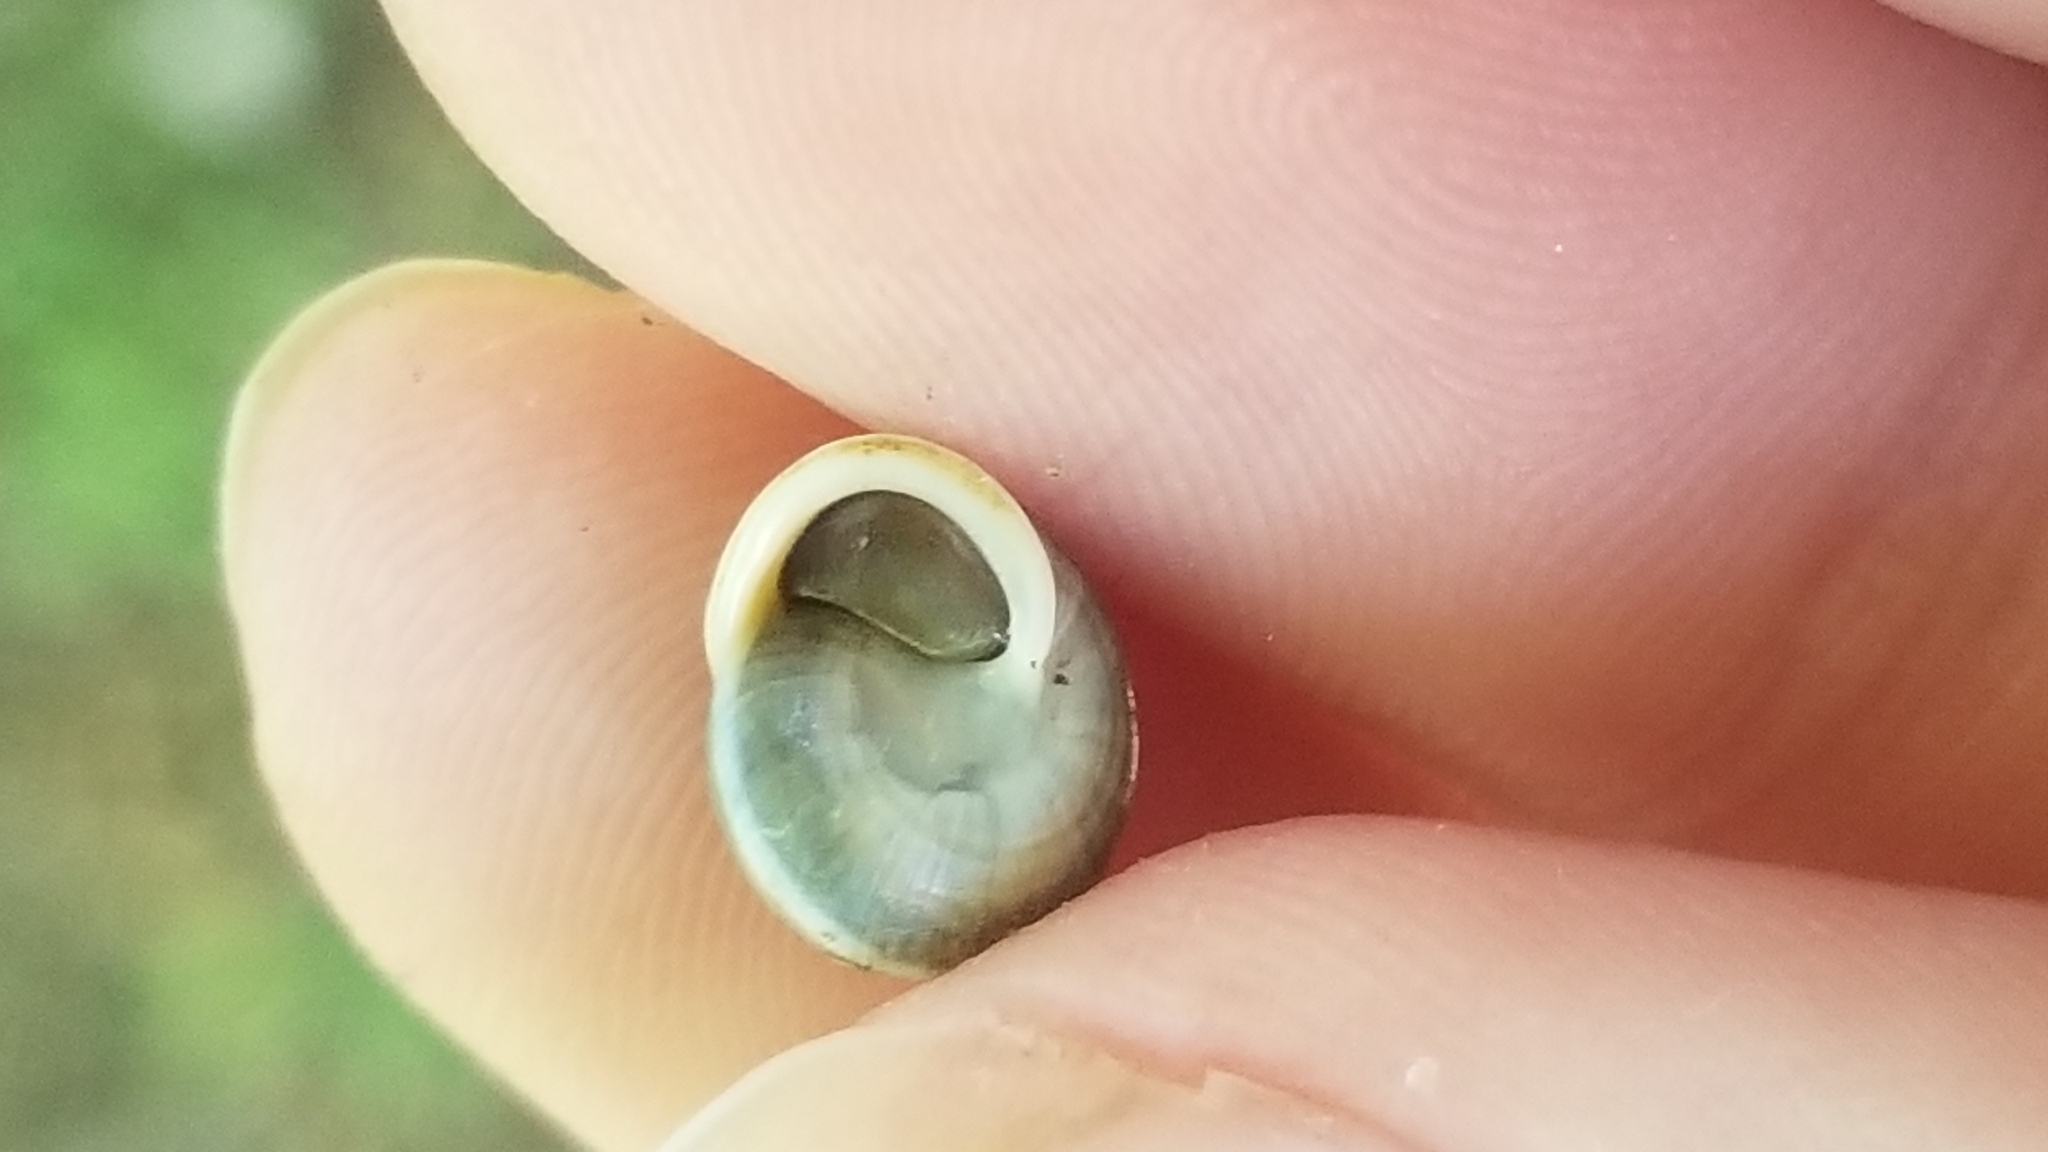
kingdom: Animalia
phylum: Mollusca
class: Gastropoda
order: Cycloneritida
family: Helicinidae
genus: Helicina
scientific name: Helicina orbiculata
